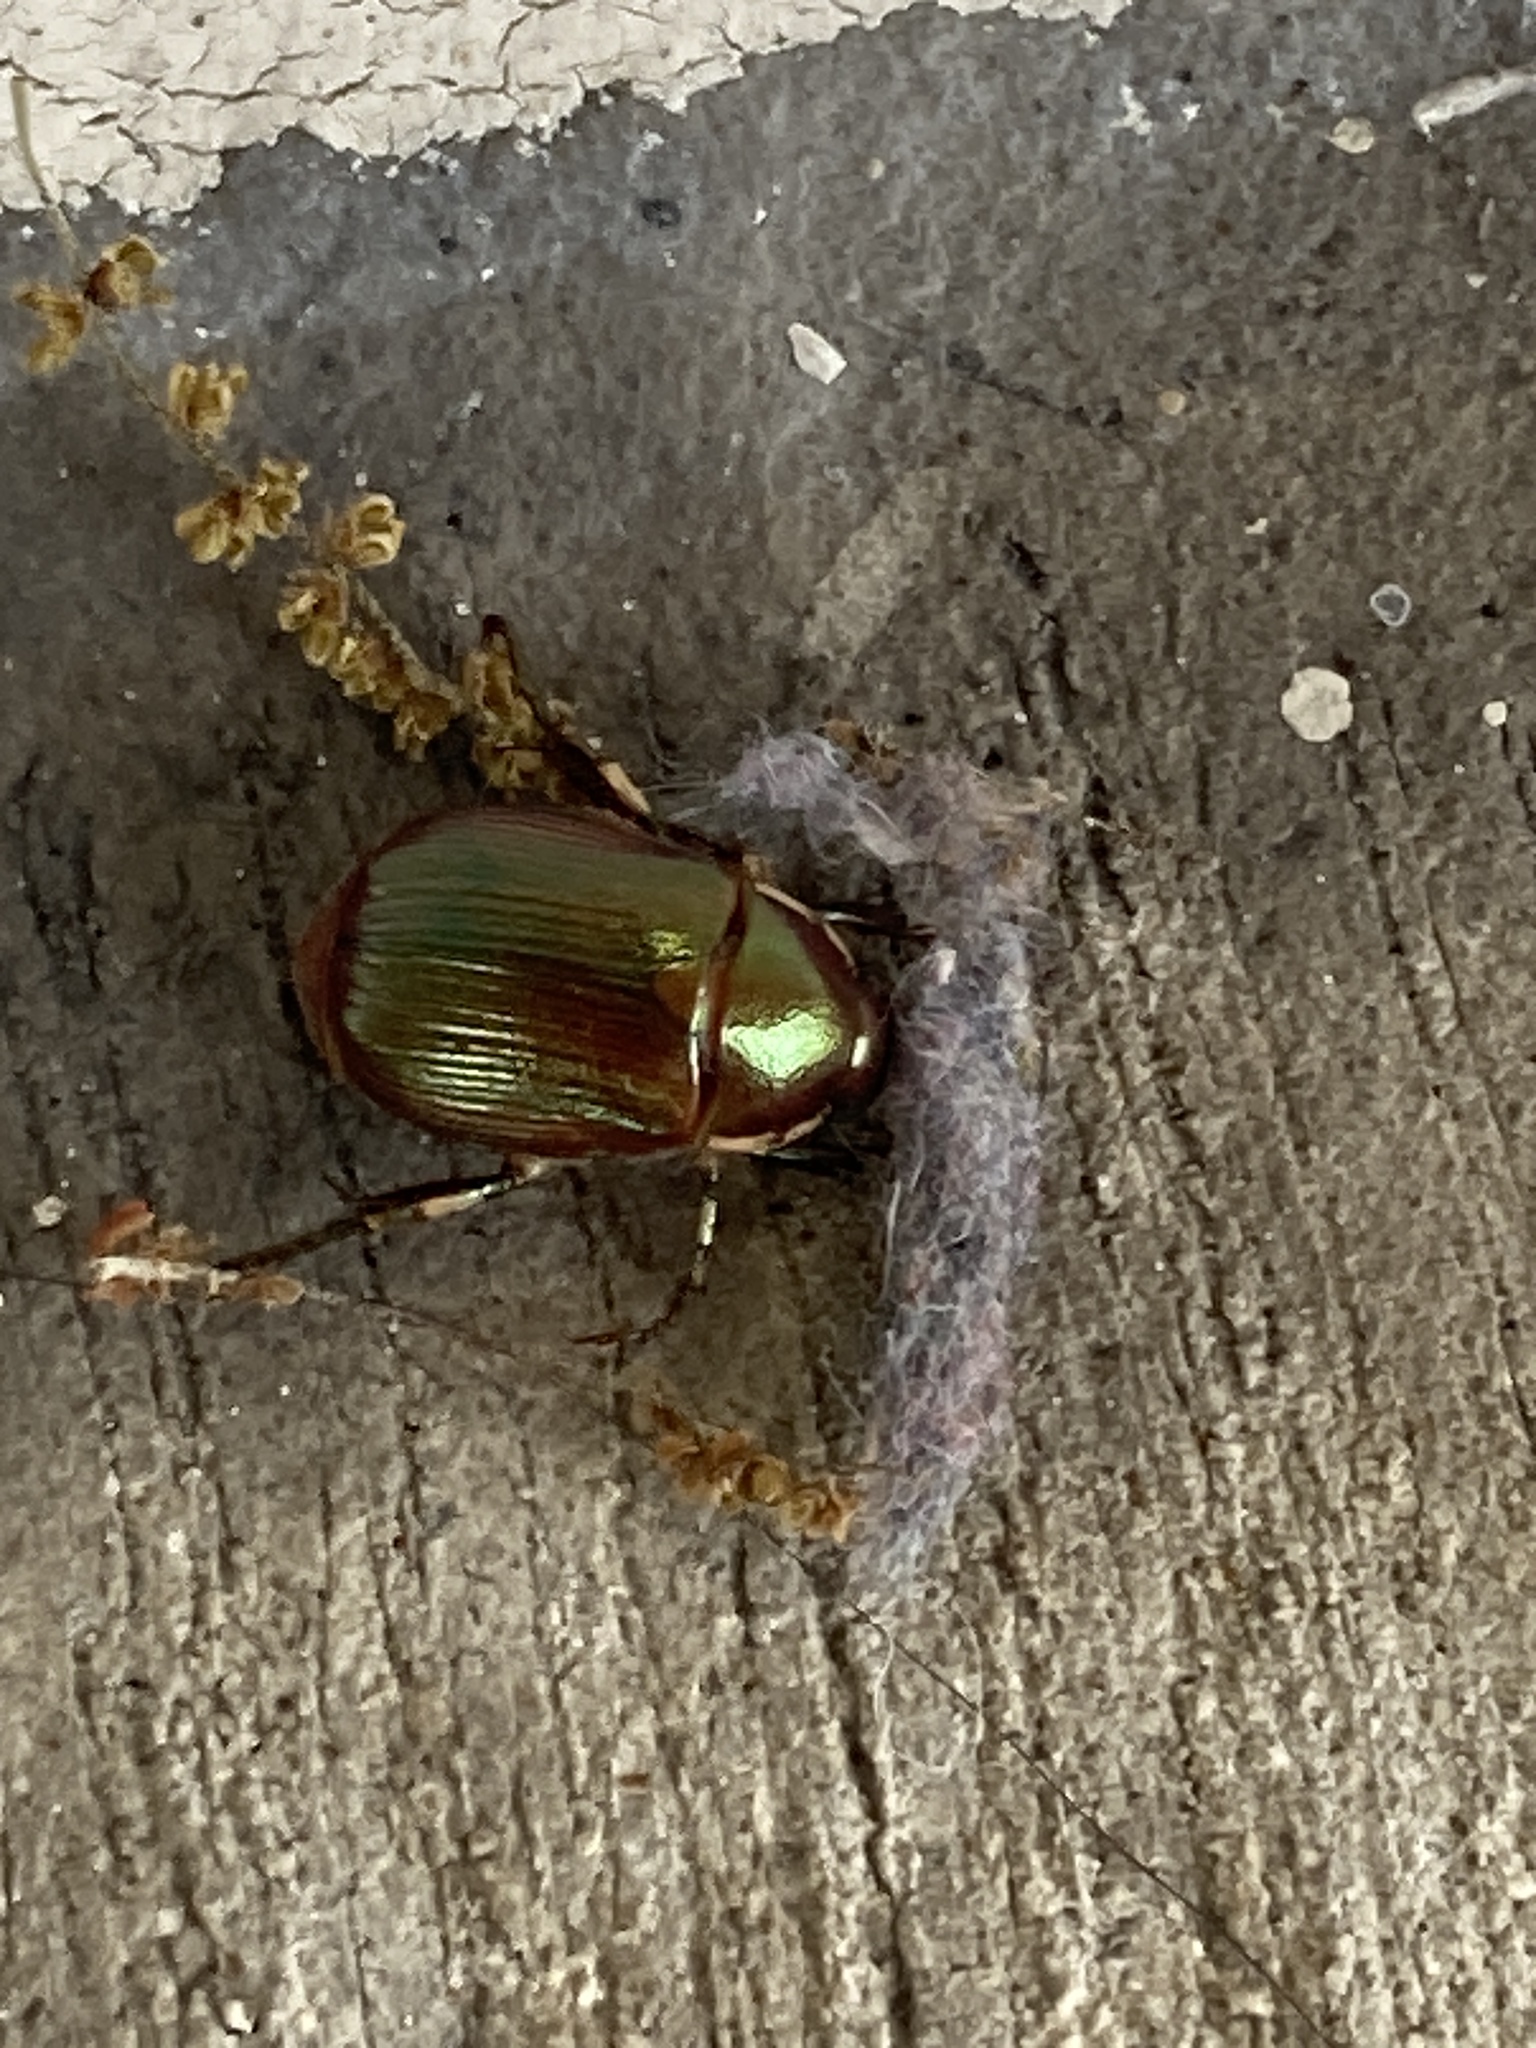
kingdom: Animalia
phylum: Arthropoda
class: Insecta
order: Coleoptera
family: Scarabaeidae
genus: Callistethus
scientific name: Callistethus marginatus
